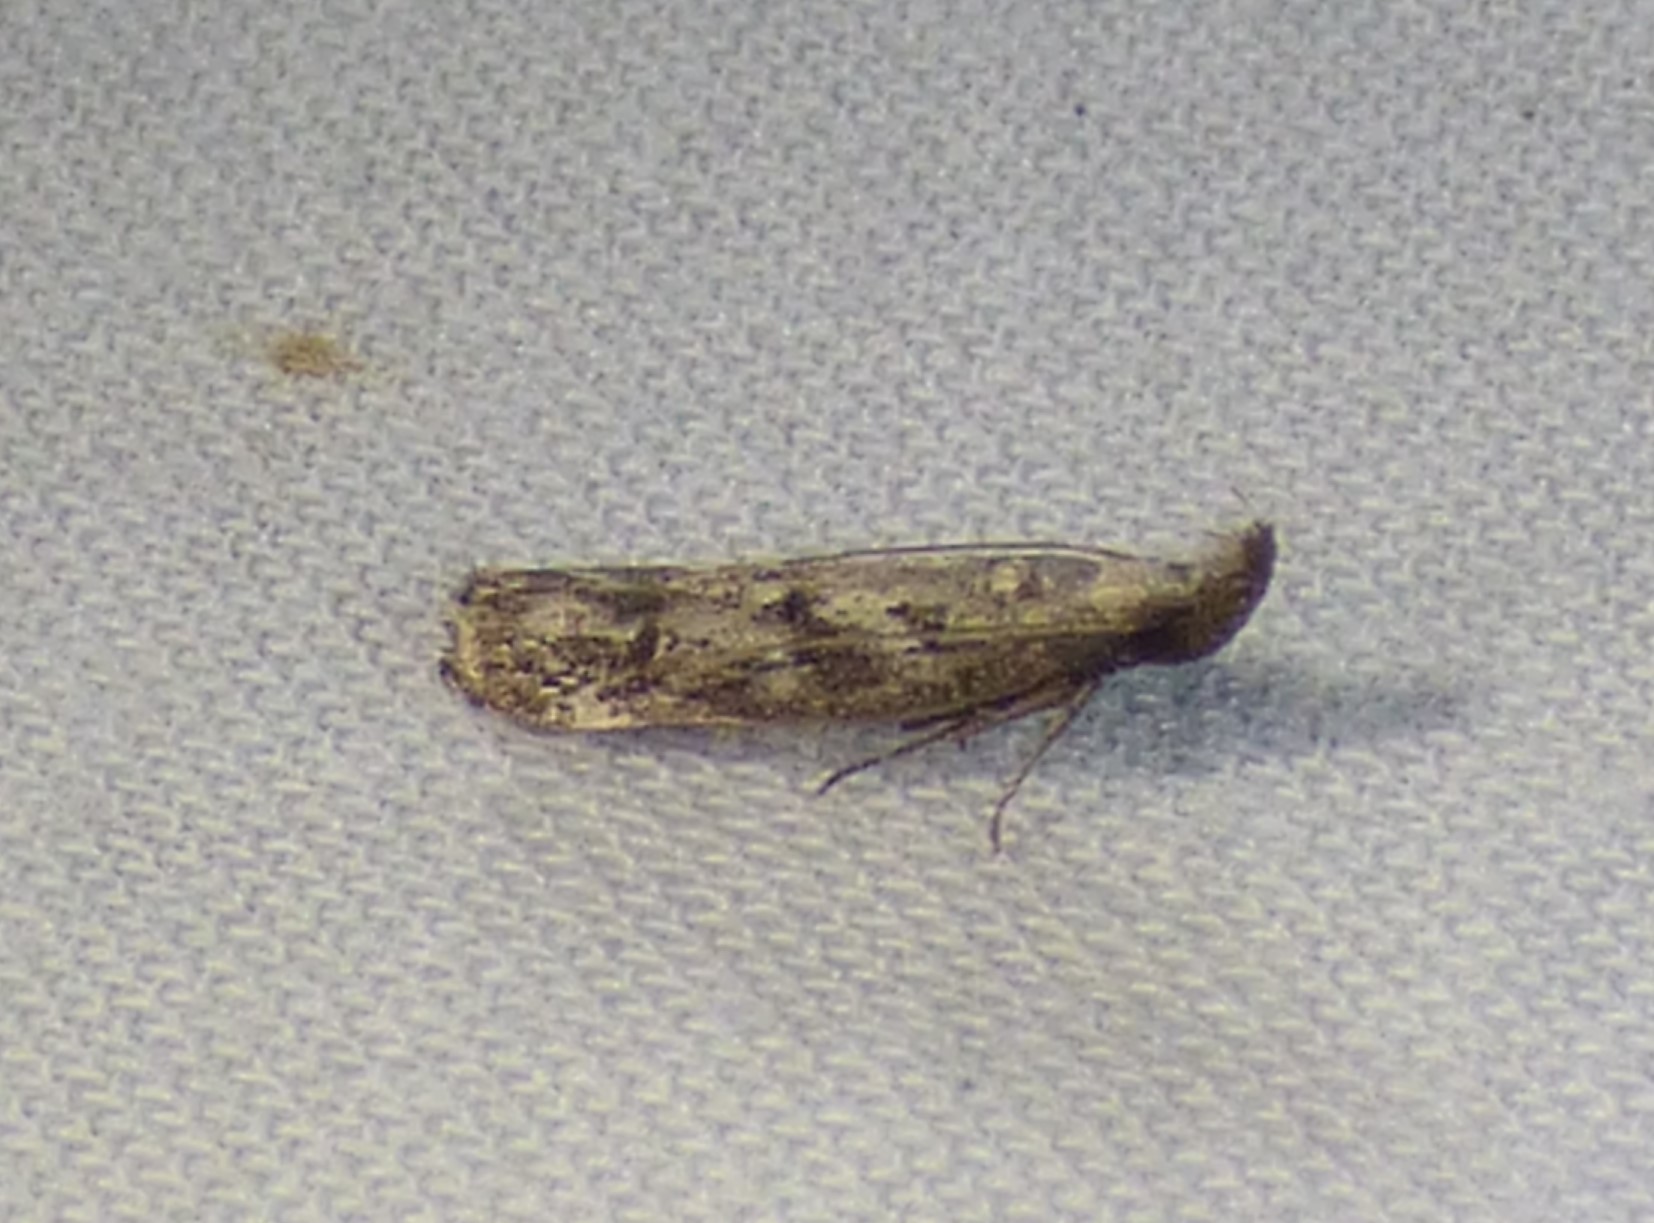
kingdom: Animalia
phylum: Arthropoda
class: Insecta
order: Lepidoptera
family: Gelechiidae
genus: Dichomeris
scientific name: Dichomeris inversella
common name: Inverse dichomeris moth
